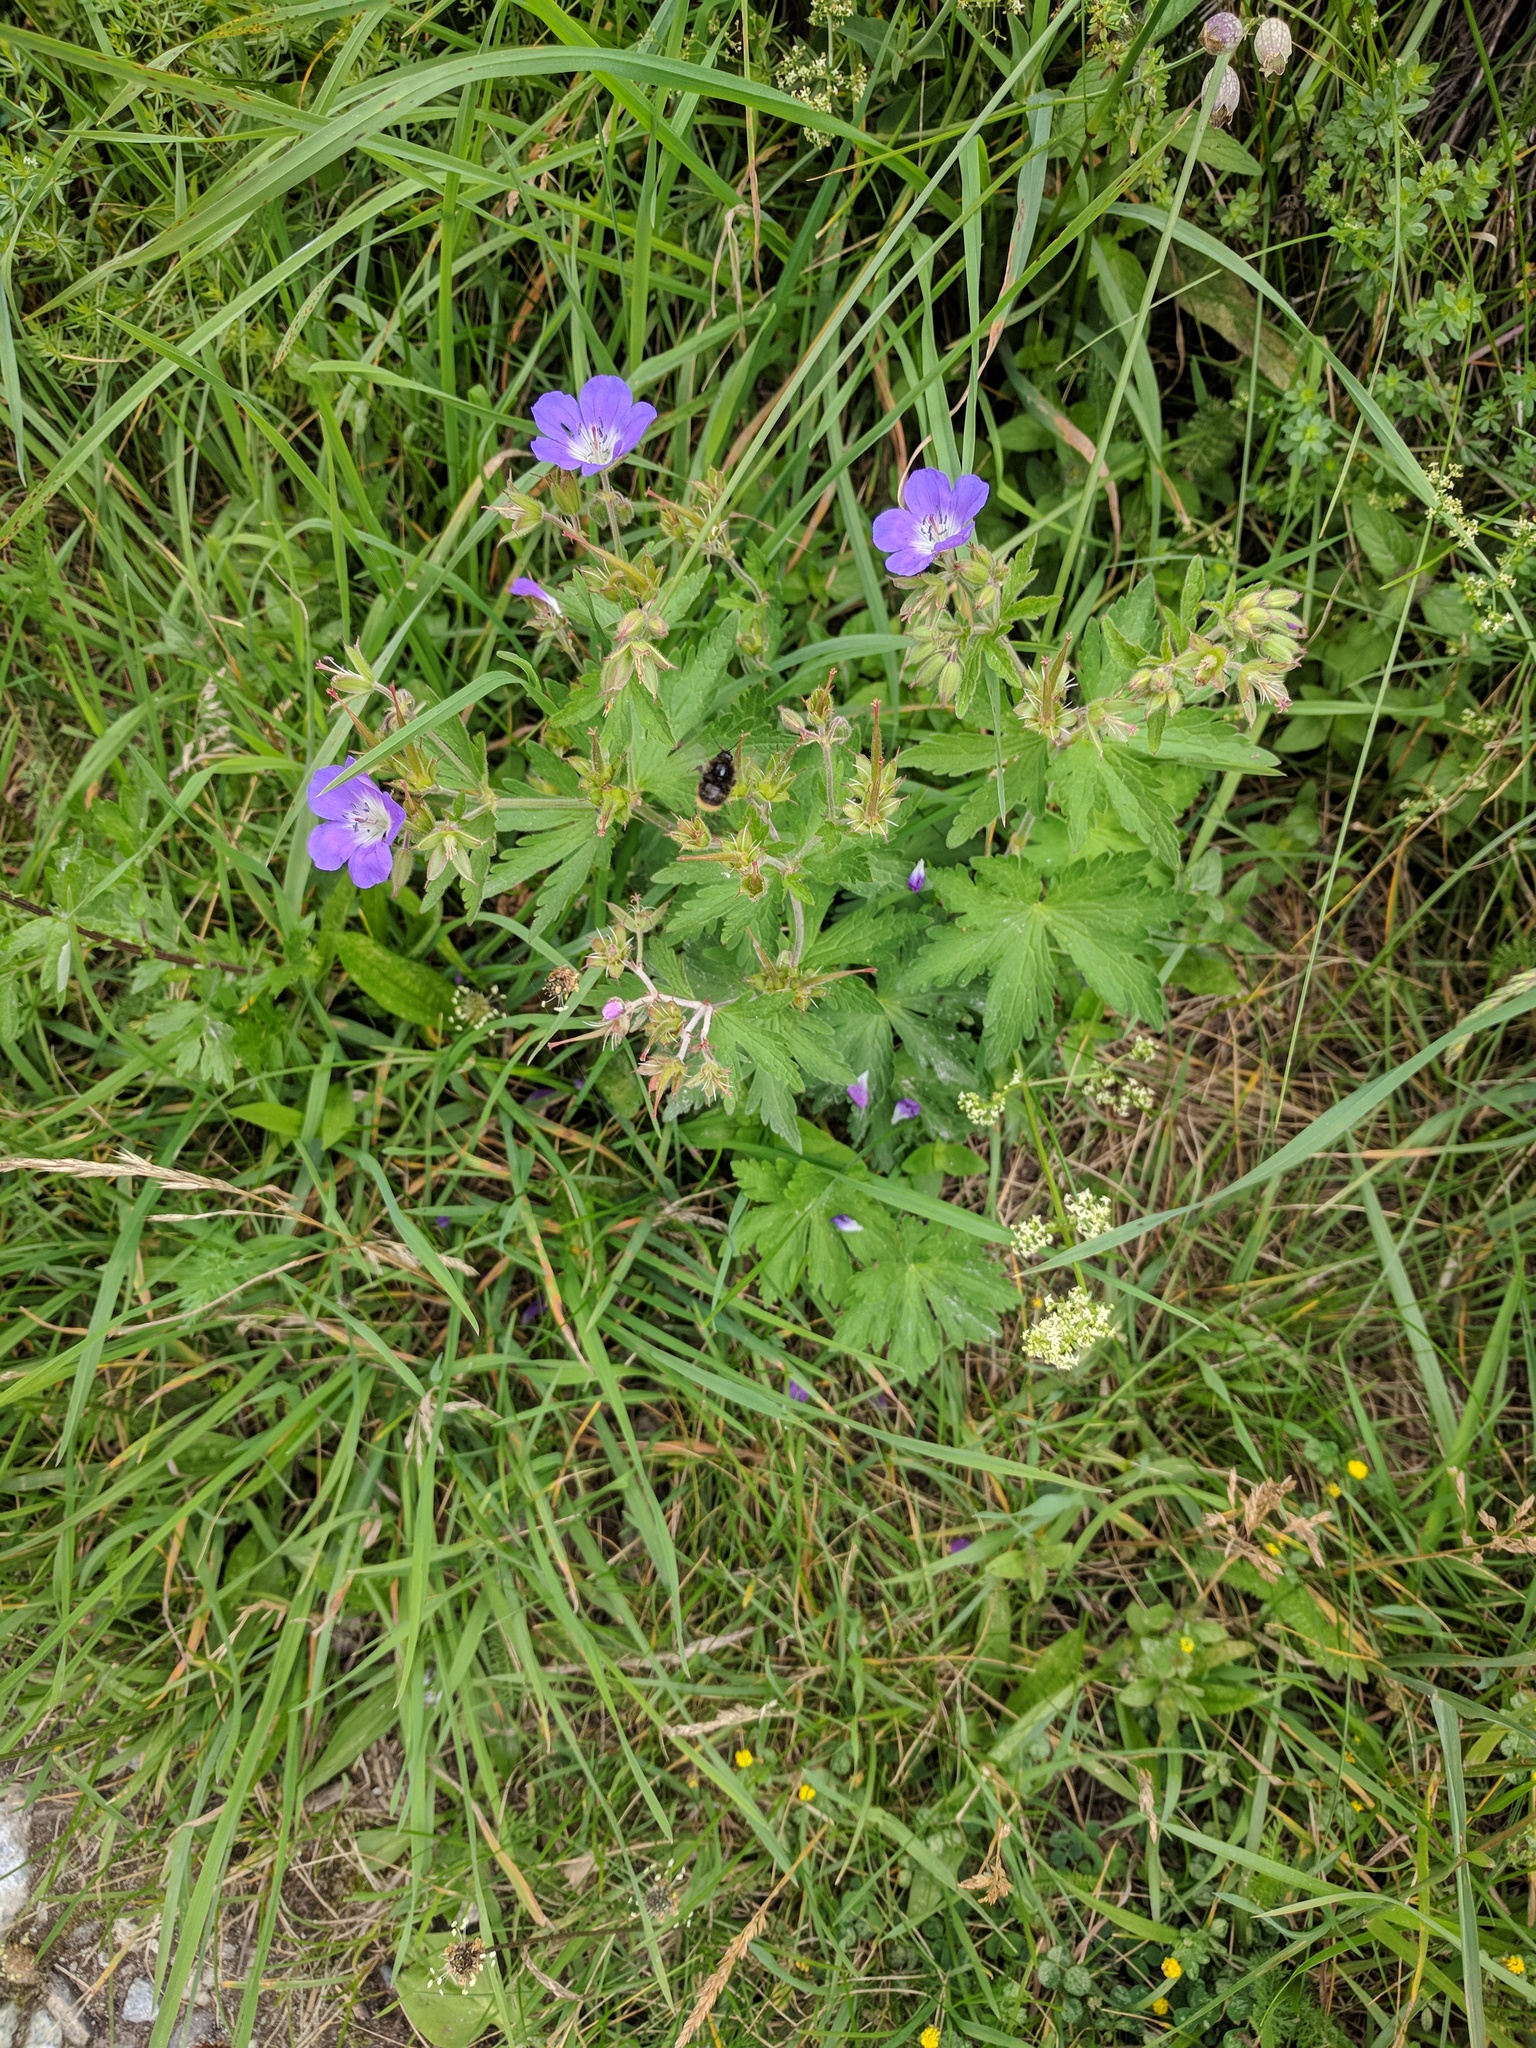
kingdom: Plantae
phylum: Tracheophyta
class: Magnoliopsida
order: Geraniales
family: Geraniaceae
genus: Geranium
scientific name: Geranium sylvaticum
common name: Wood crane's-bill
